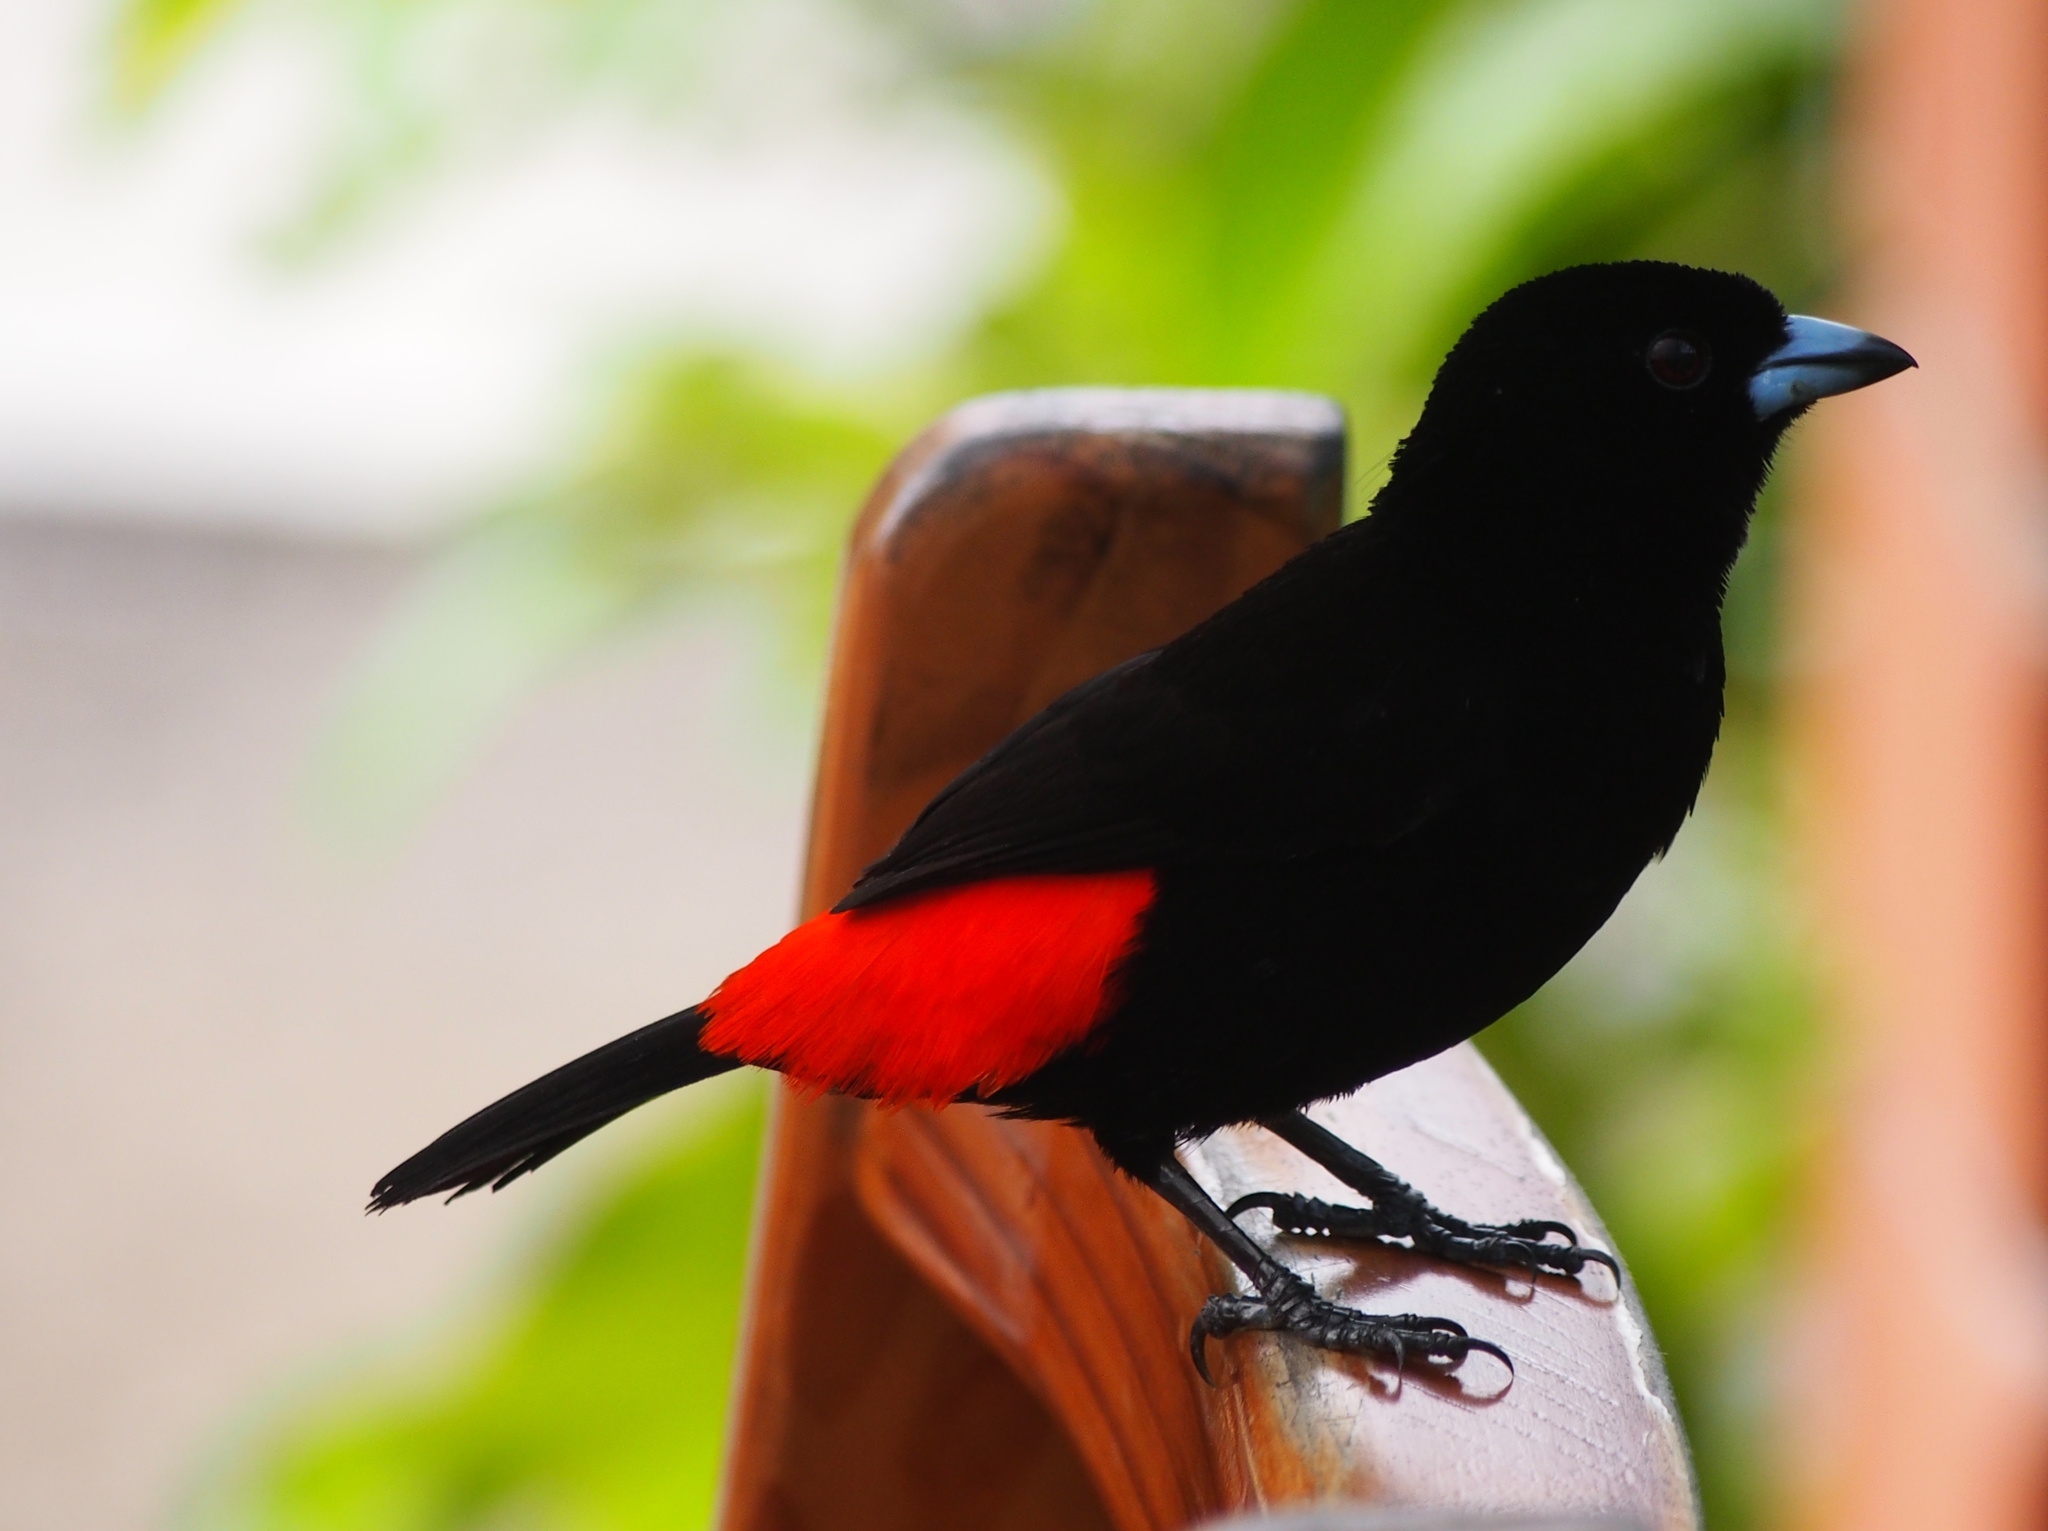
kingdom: Animalia
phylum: Chordata
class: Aves
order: Passeriformes
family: Thraupidae
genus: Ramphocelus
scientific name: Ramphocelus passerinii
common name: Passerini's tanager
